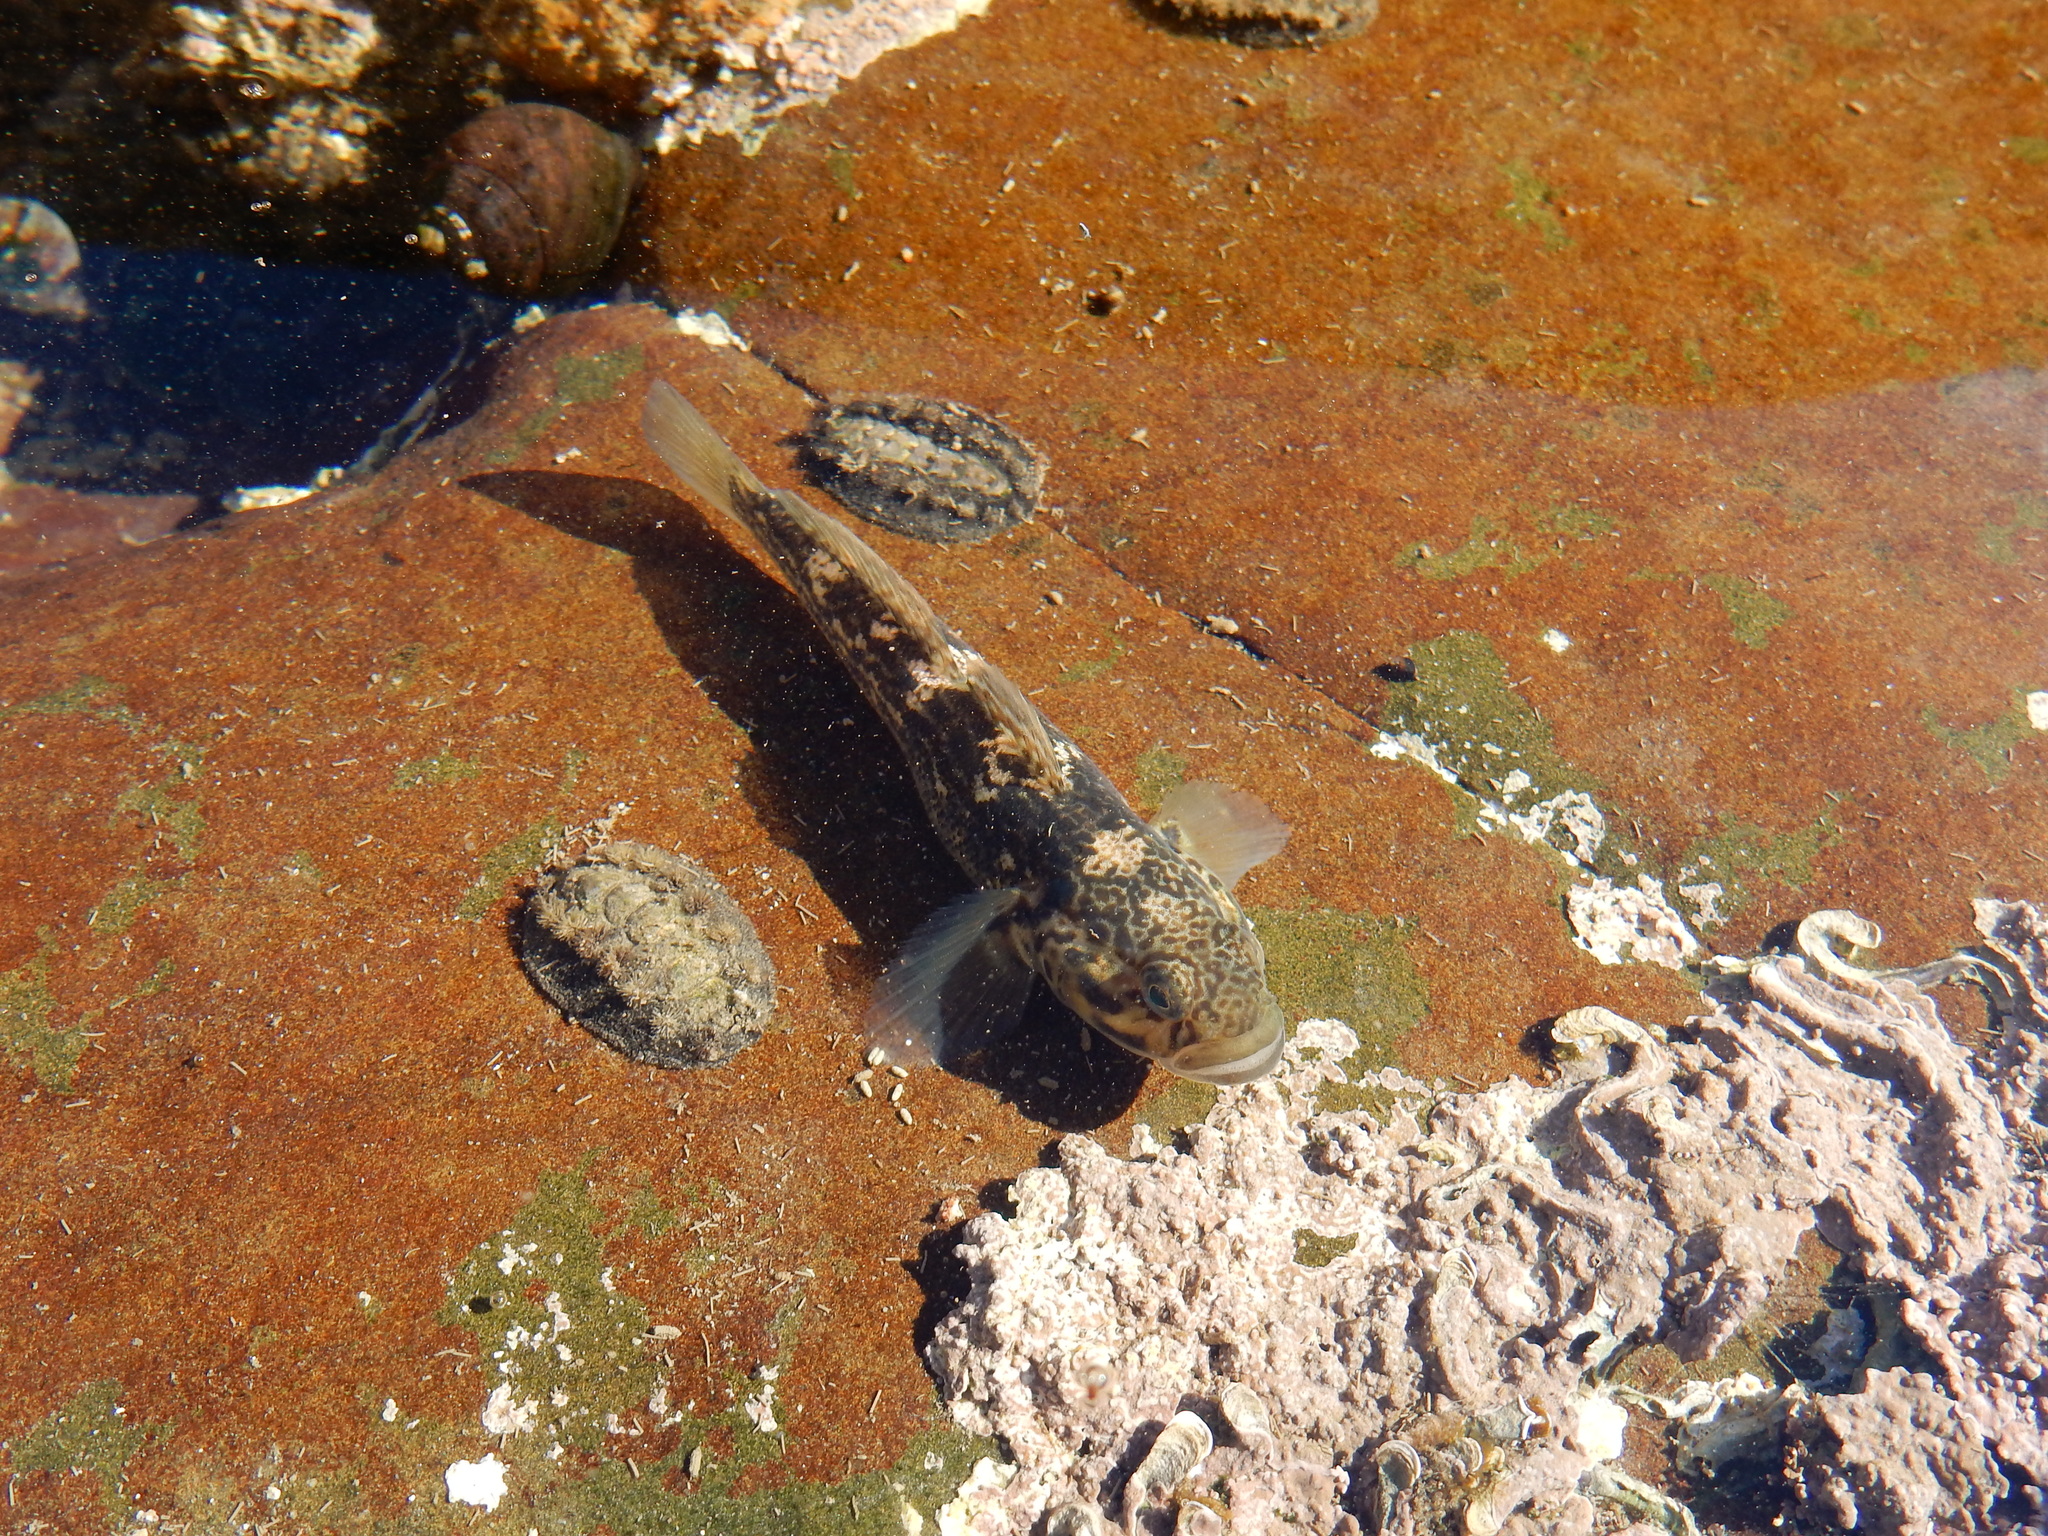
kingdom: Animalia
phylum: Chordata
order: Perciformes
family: Gobiidae
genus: Caffrogobius
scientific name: Caffrogobius caffer
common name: Banded goby
